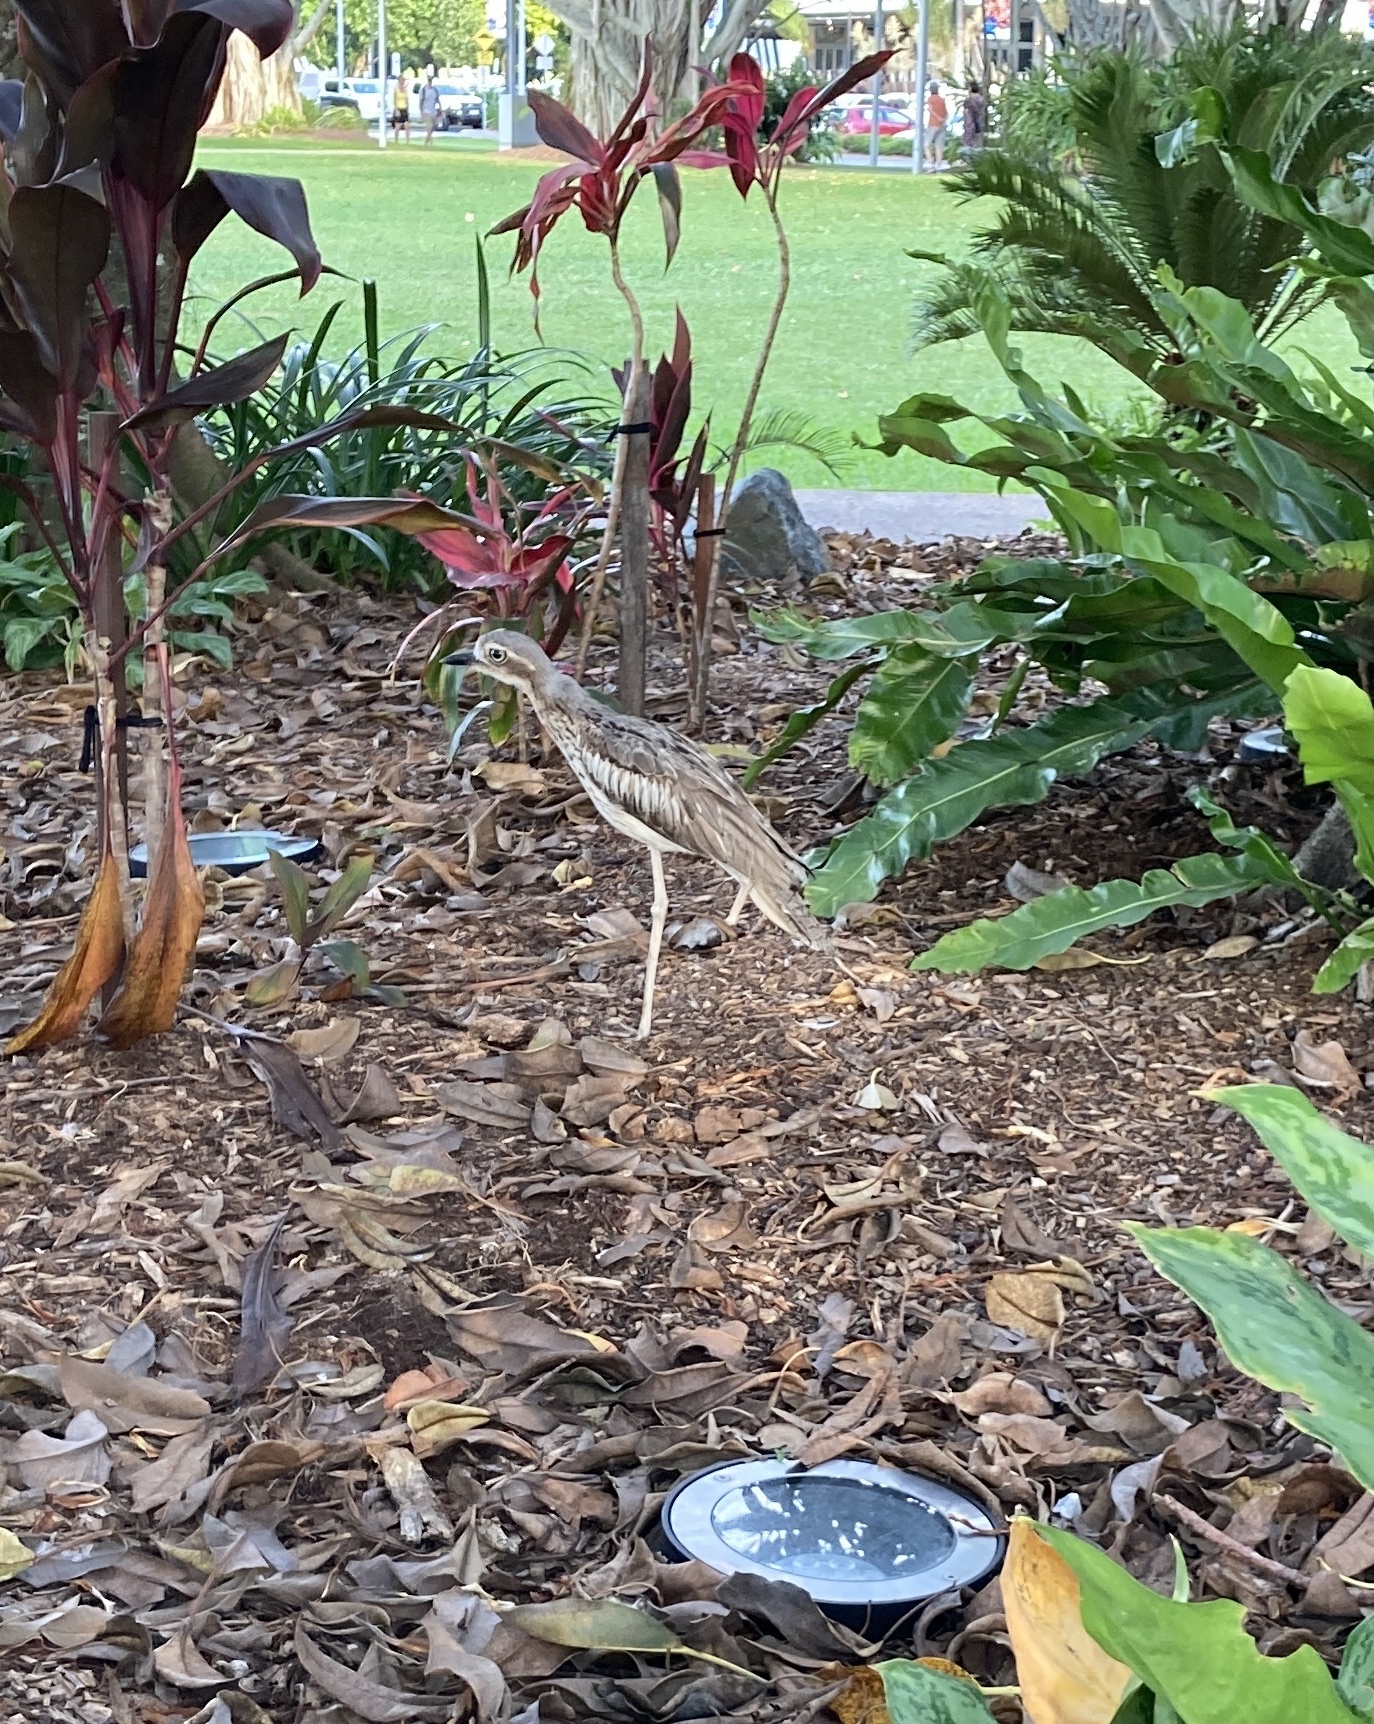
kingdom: Animalia
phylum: Chordata
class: Aves
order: Charadriiformes
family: Burhinidae
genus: Burhinus
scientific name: Burhinus grallarius
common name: Bush stone-curlew
